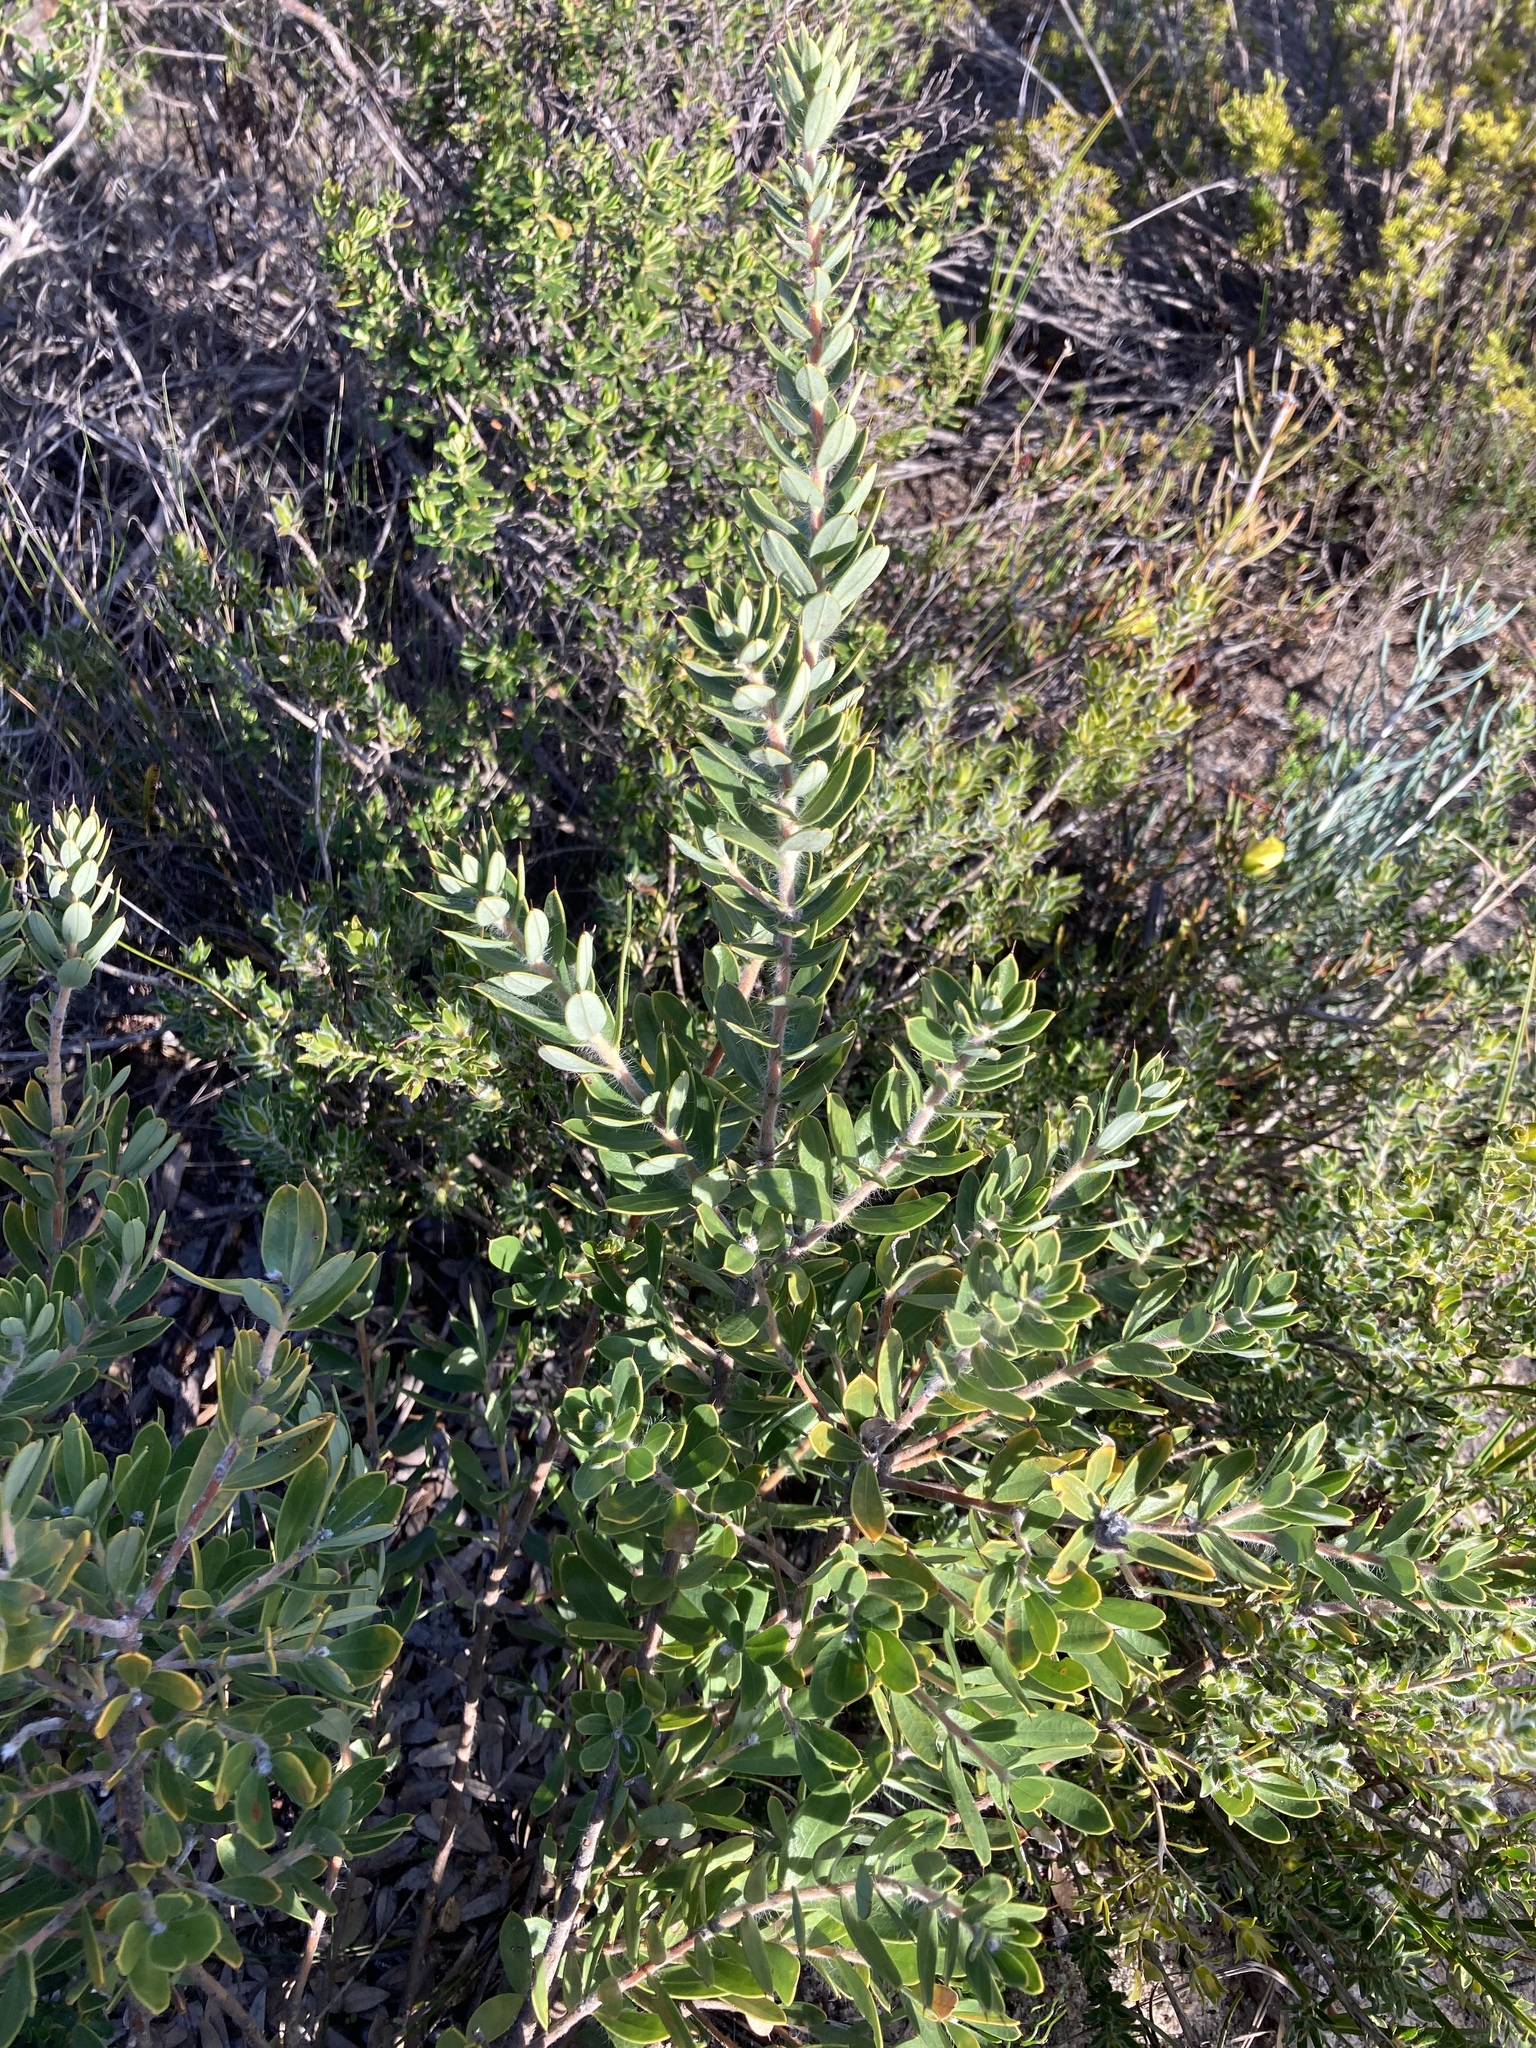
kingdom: Plantae
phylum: Tracheophyta
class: Magnoliopsida
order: Proteales
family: Proteaceae
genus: Hakea
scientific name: Hakea ruscifolia
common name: Candle hakea
